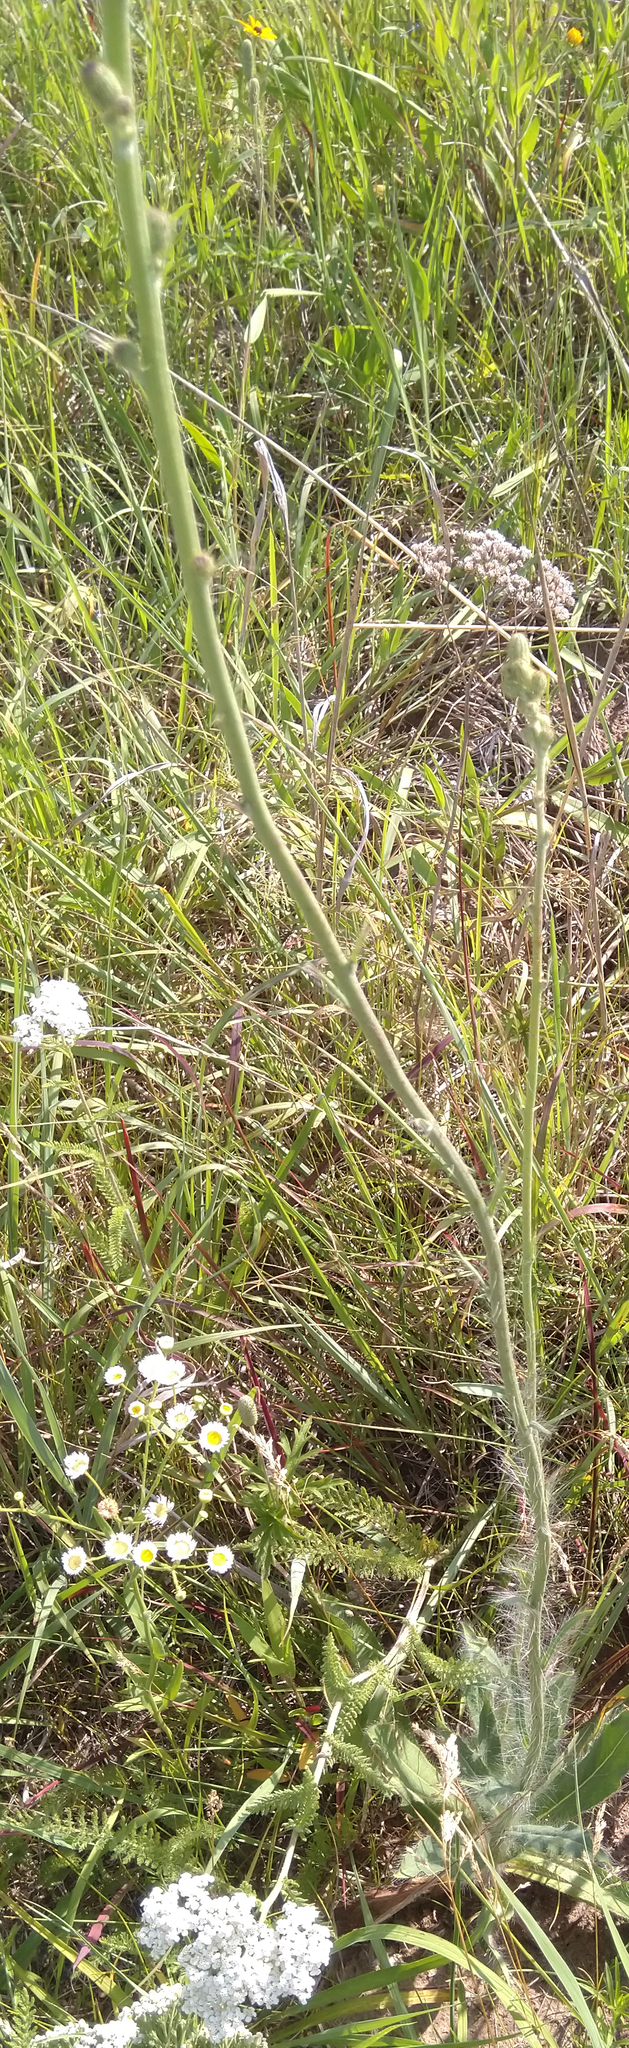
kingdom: Plantae
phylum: Tracheophyta
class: Magnoliopsida
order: Asterales
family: Asteraceae
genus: Hieracium
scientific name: Hieracium longipilum
